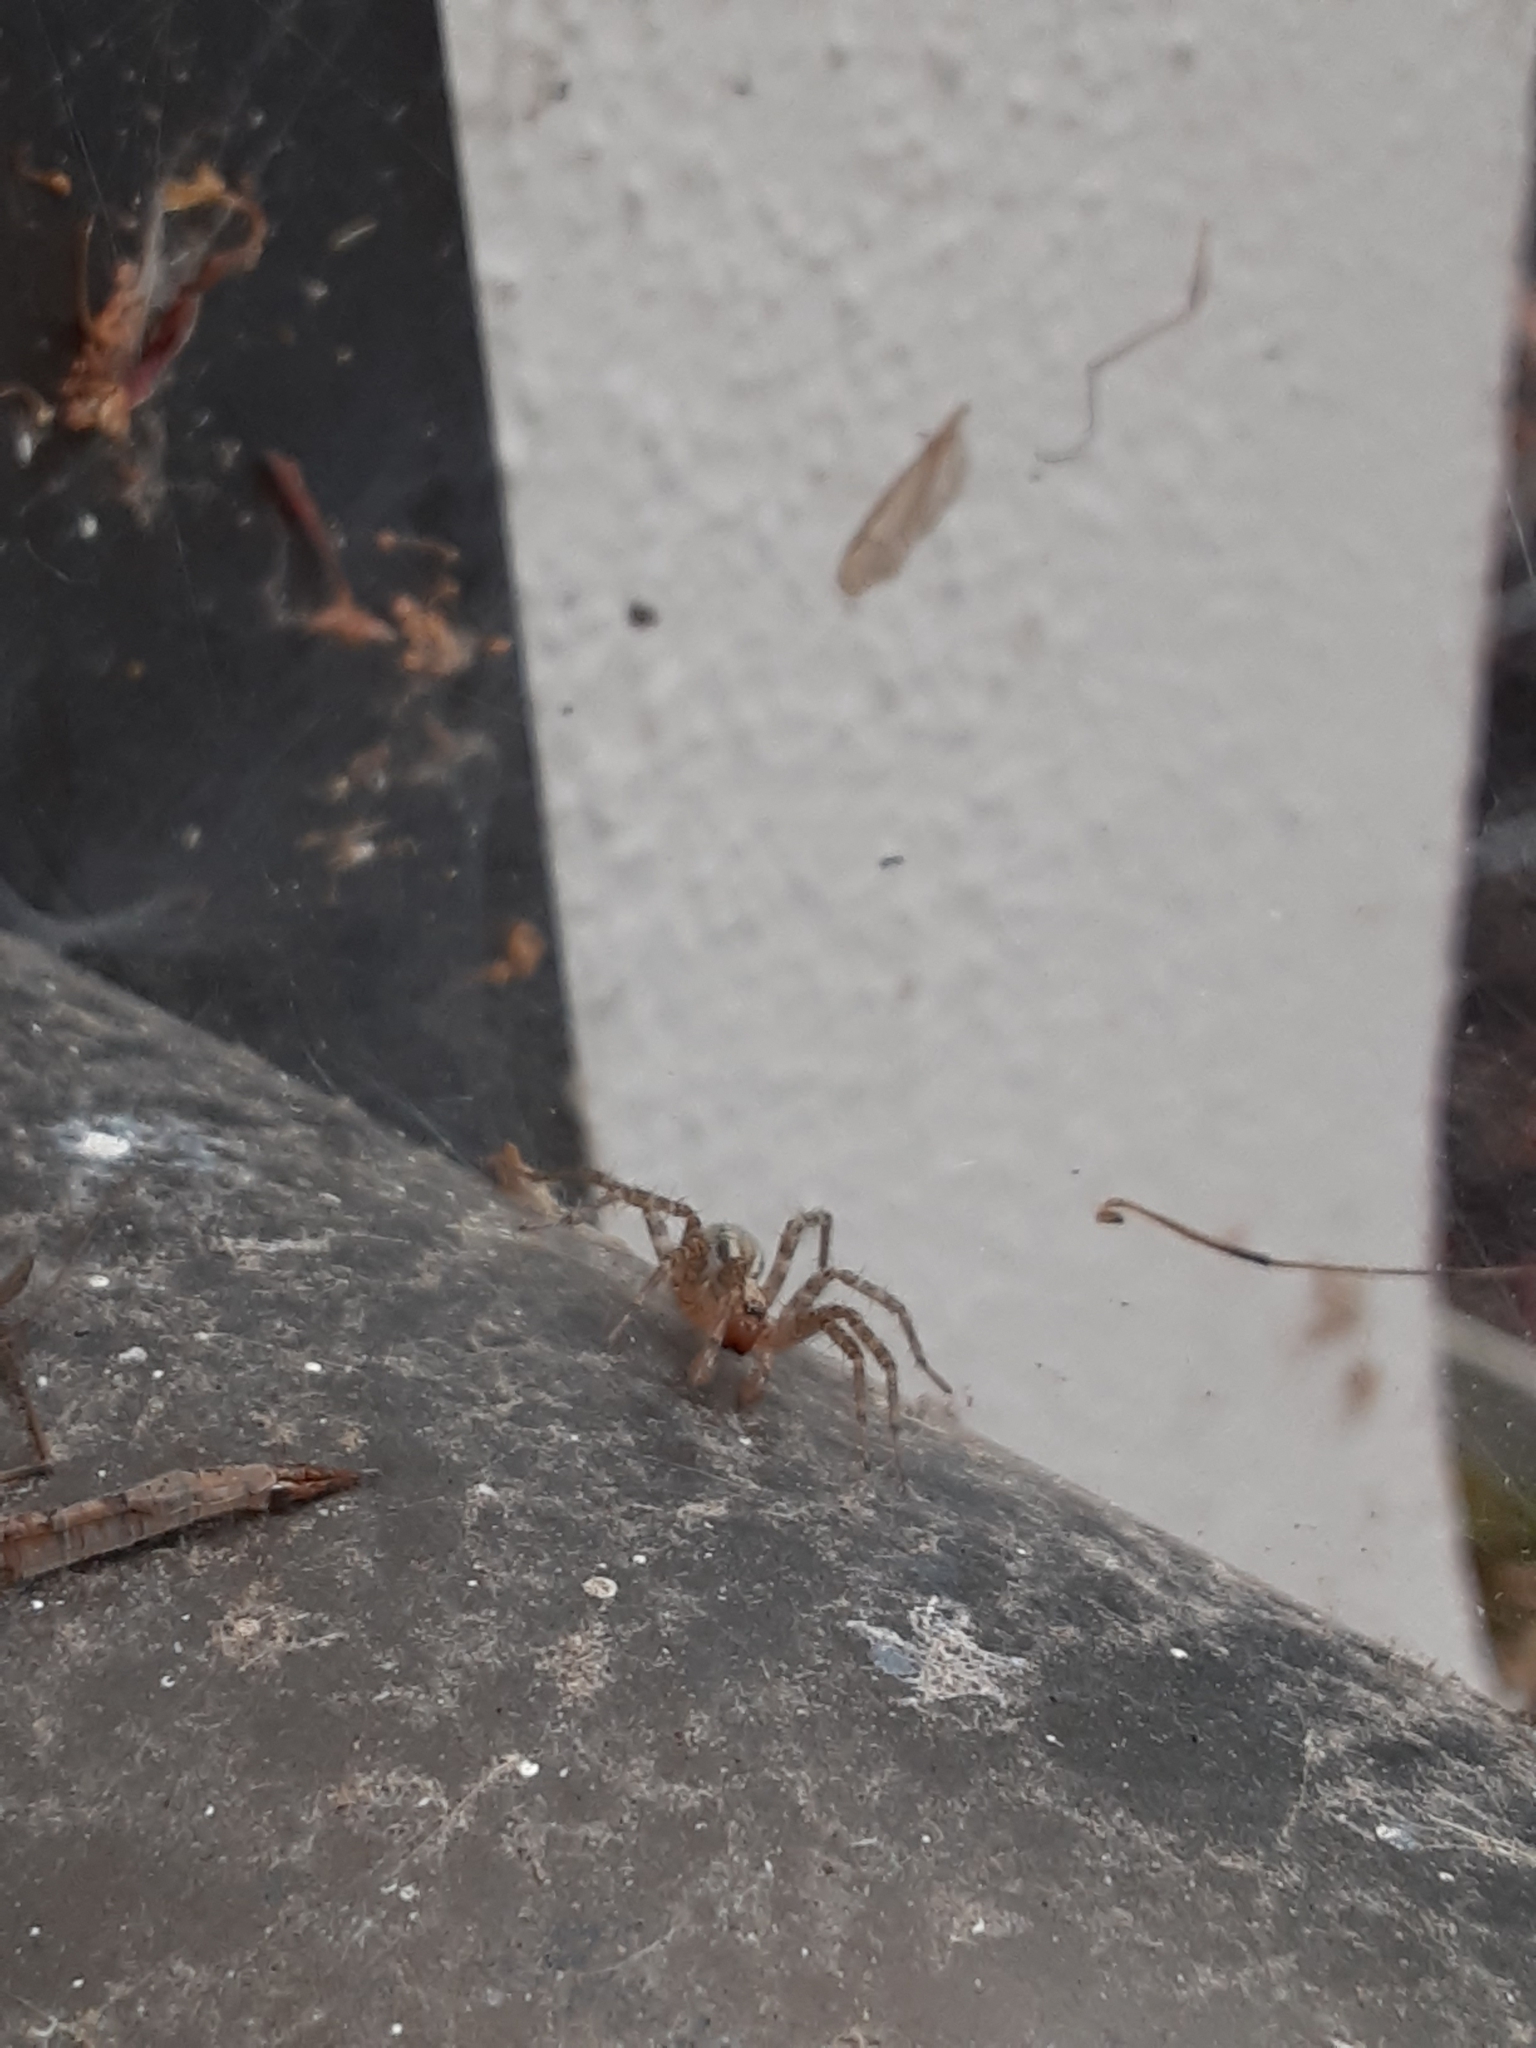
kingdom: Animalia
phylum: Arthropoda
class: Arachnida
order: Araneae
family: Agelenidae
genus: Hololena
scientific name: Hololena nedra
